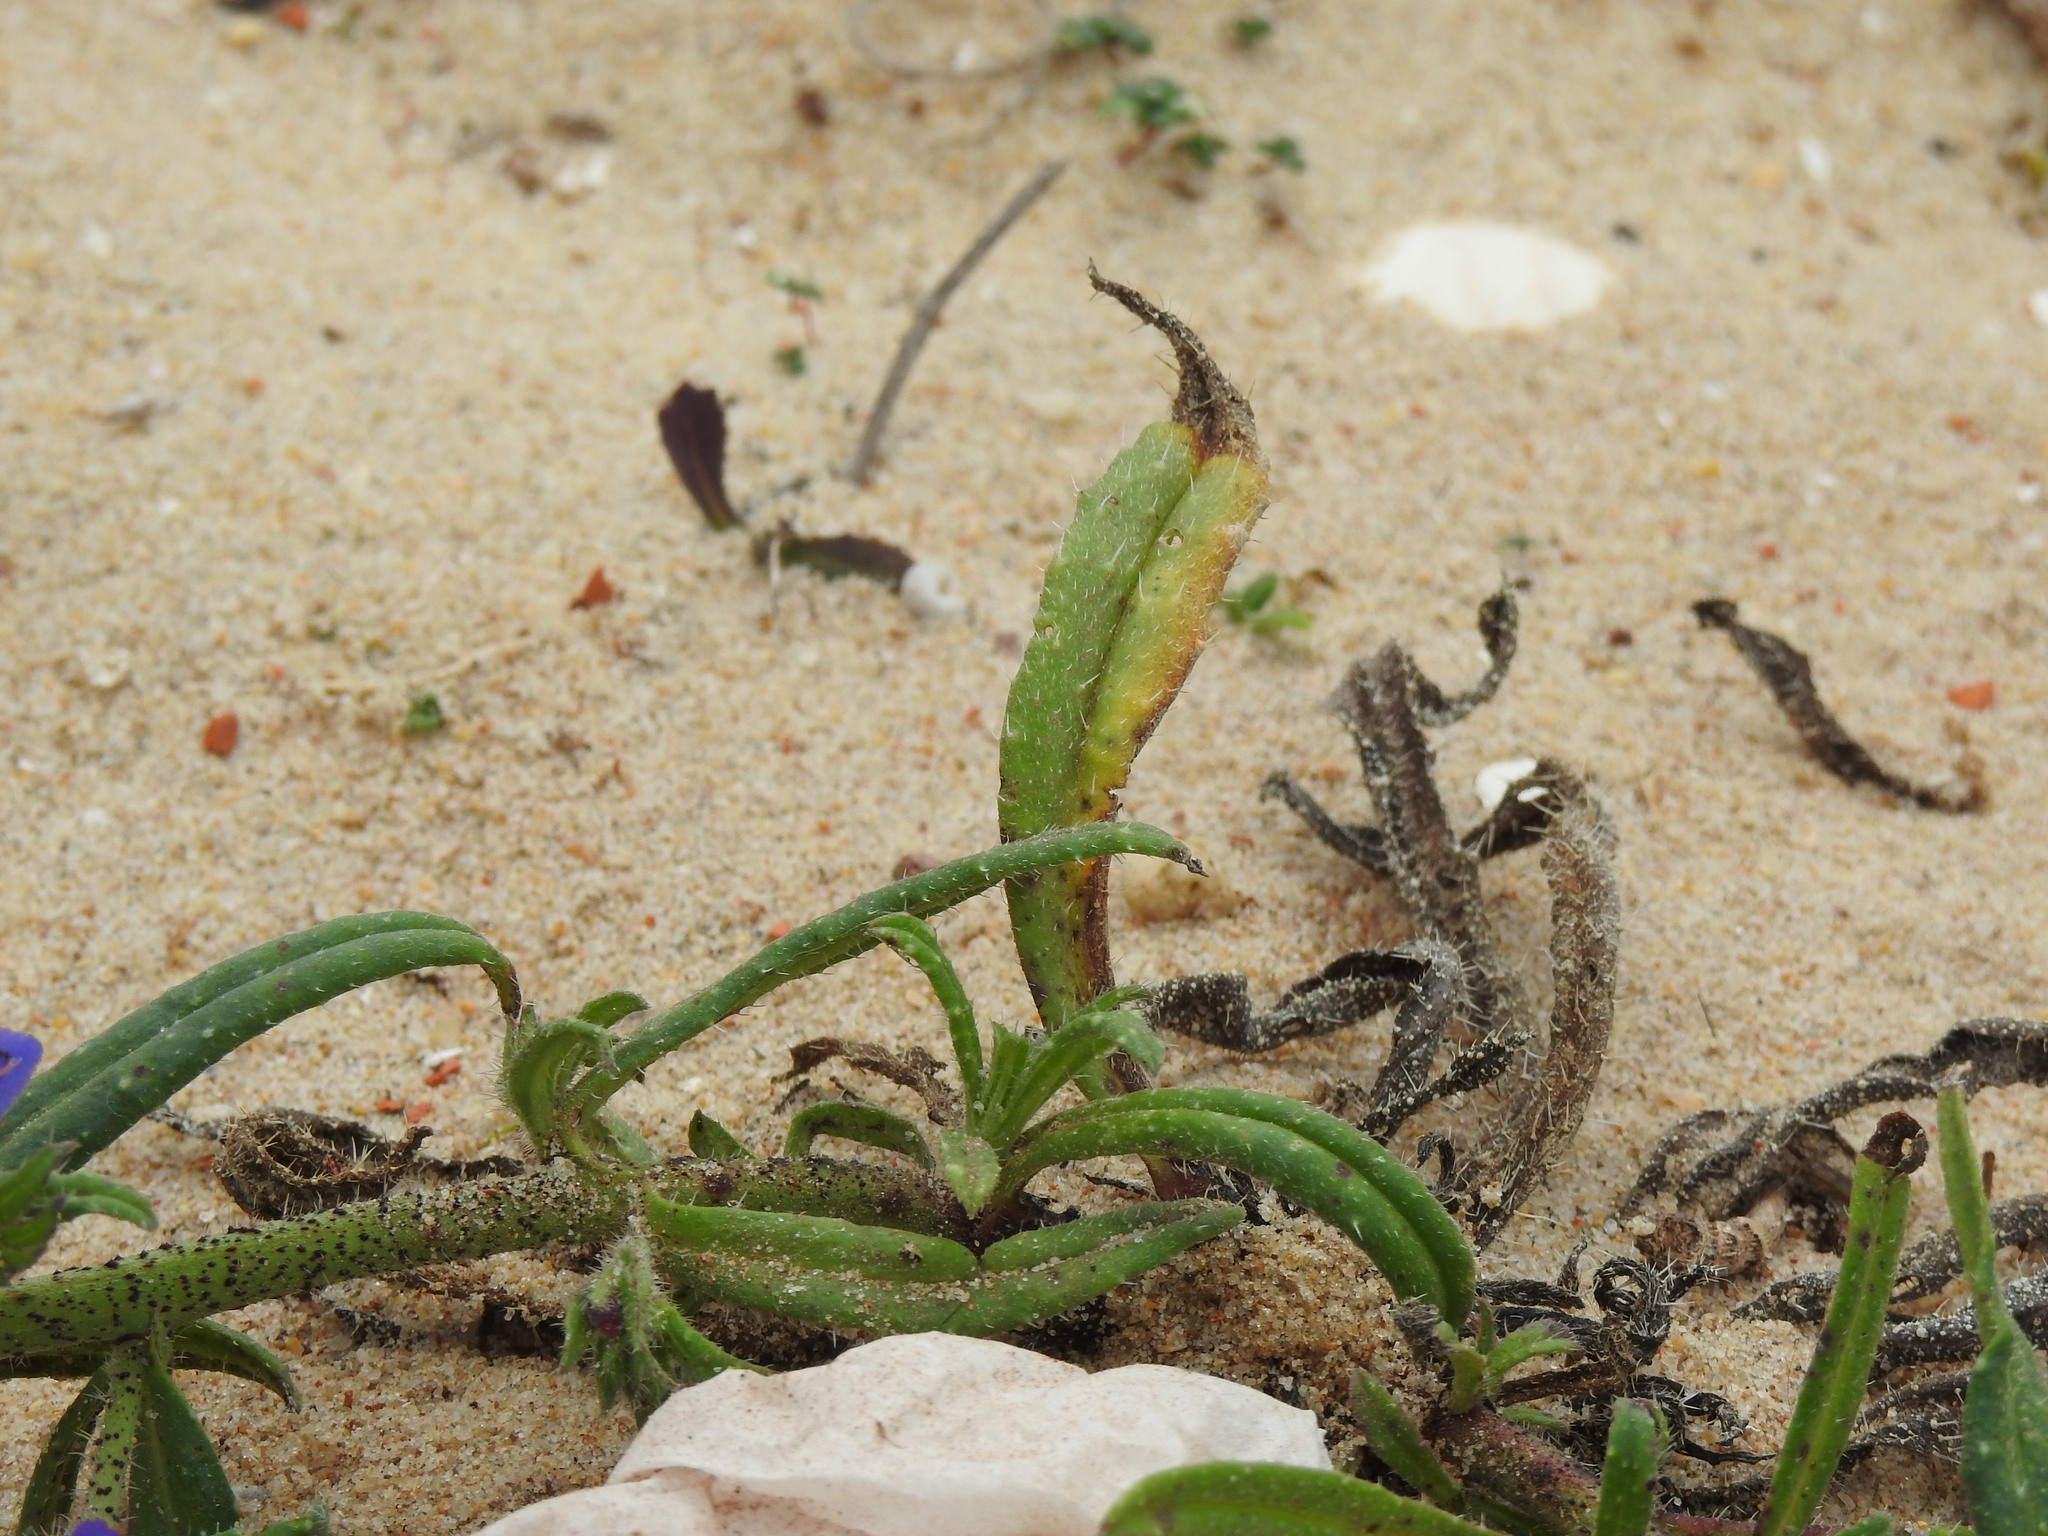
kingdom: Plantae
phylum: Tracheophyta
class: Magnoliopsida
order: Boraginales
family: Boraginaceae
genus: Echium
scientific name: Echium gaditanum
